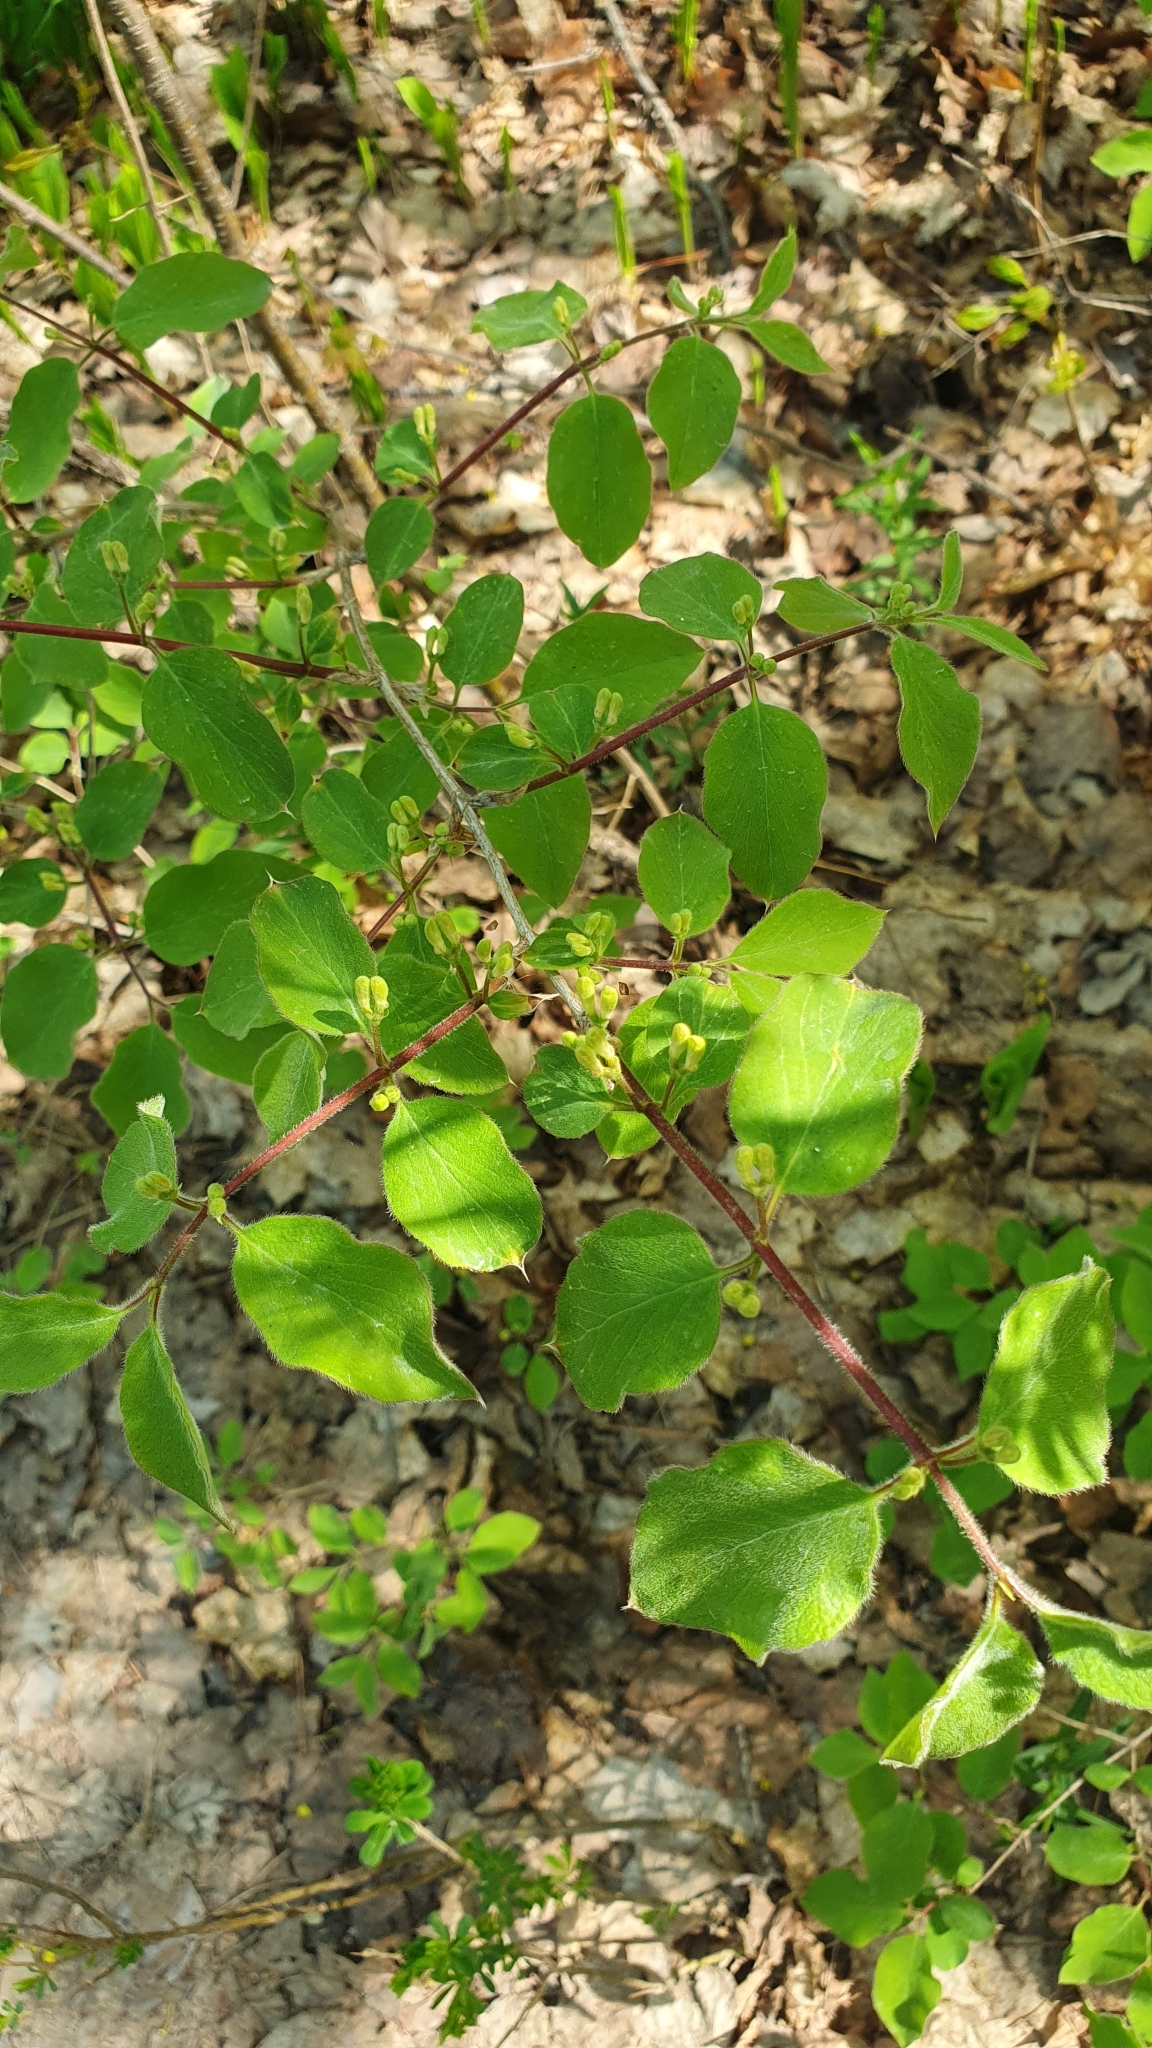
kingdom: Plantae
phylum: Tracheophyta
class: Magnoliopsida
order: Dipsacales
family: Caprifoliaceae
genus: Lonicera
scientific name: Lonicera xylosteum
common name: Fly honeysuckle
